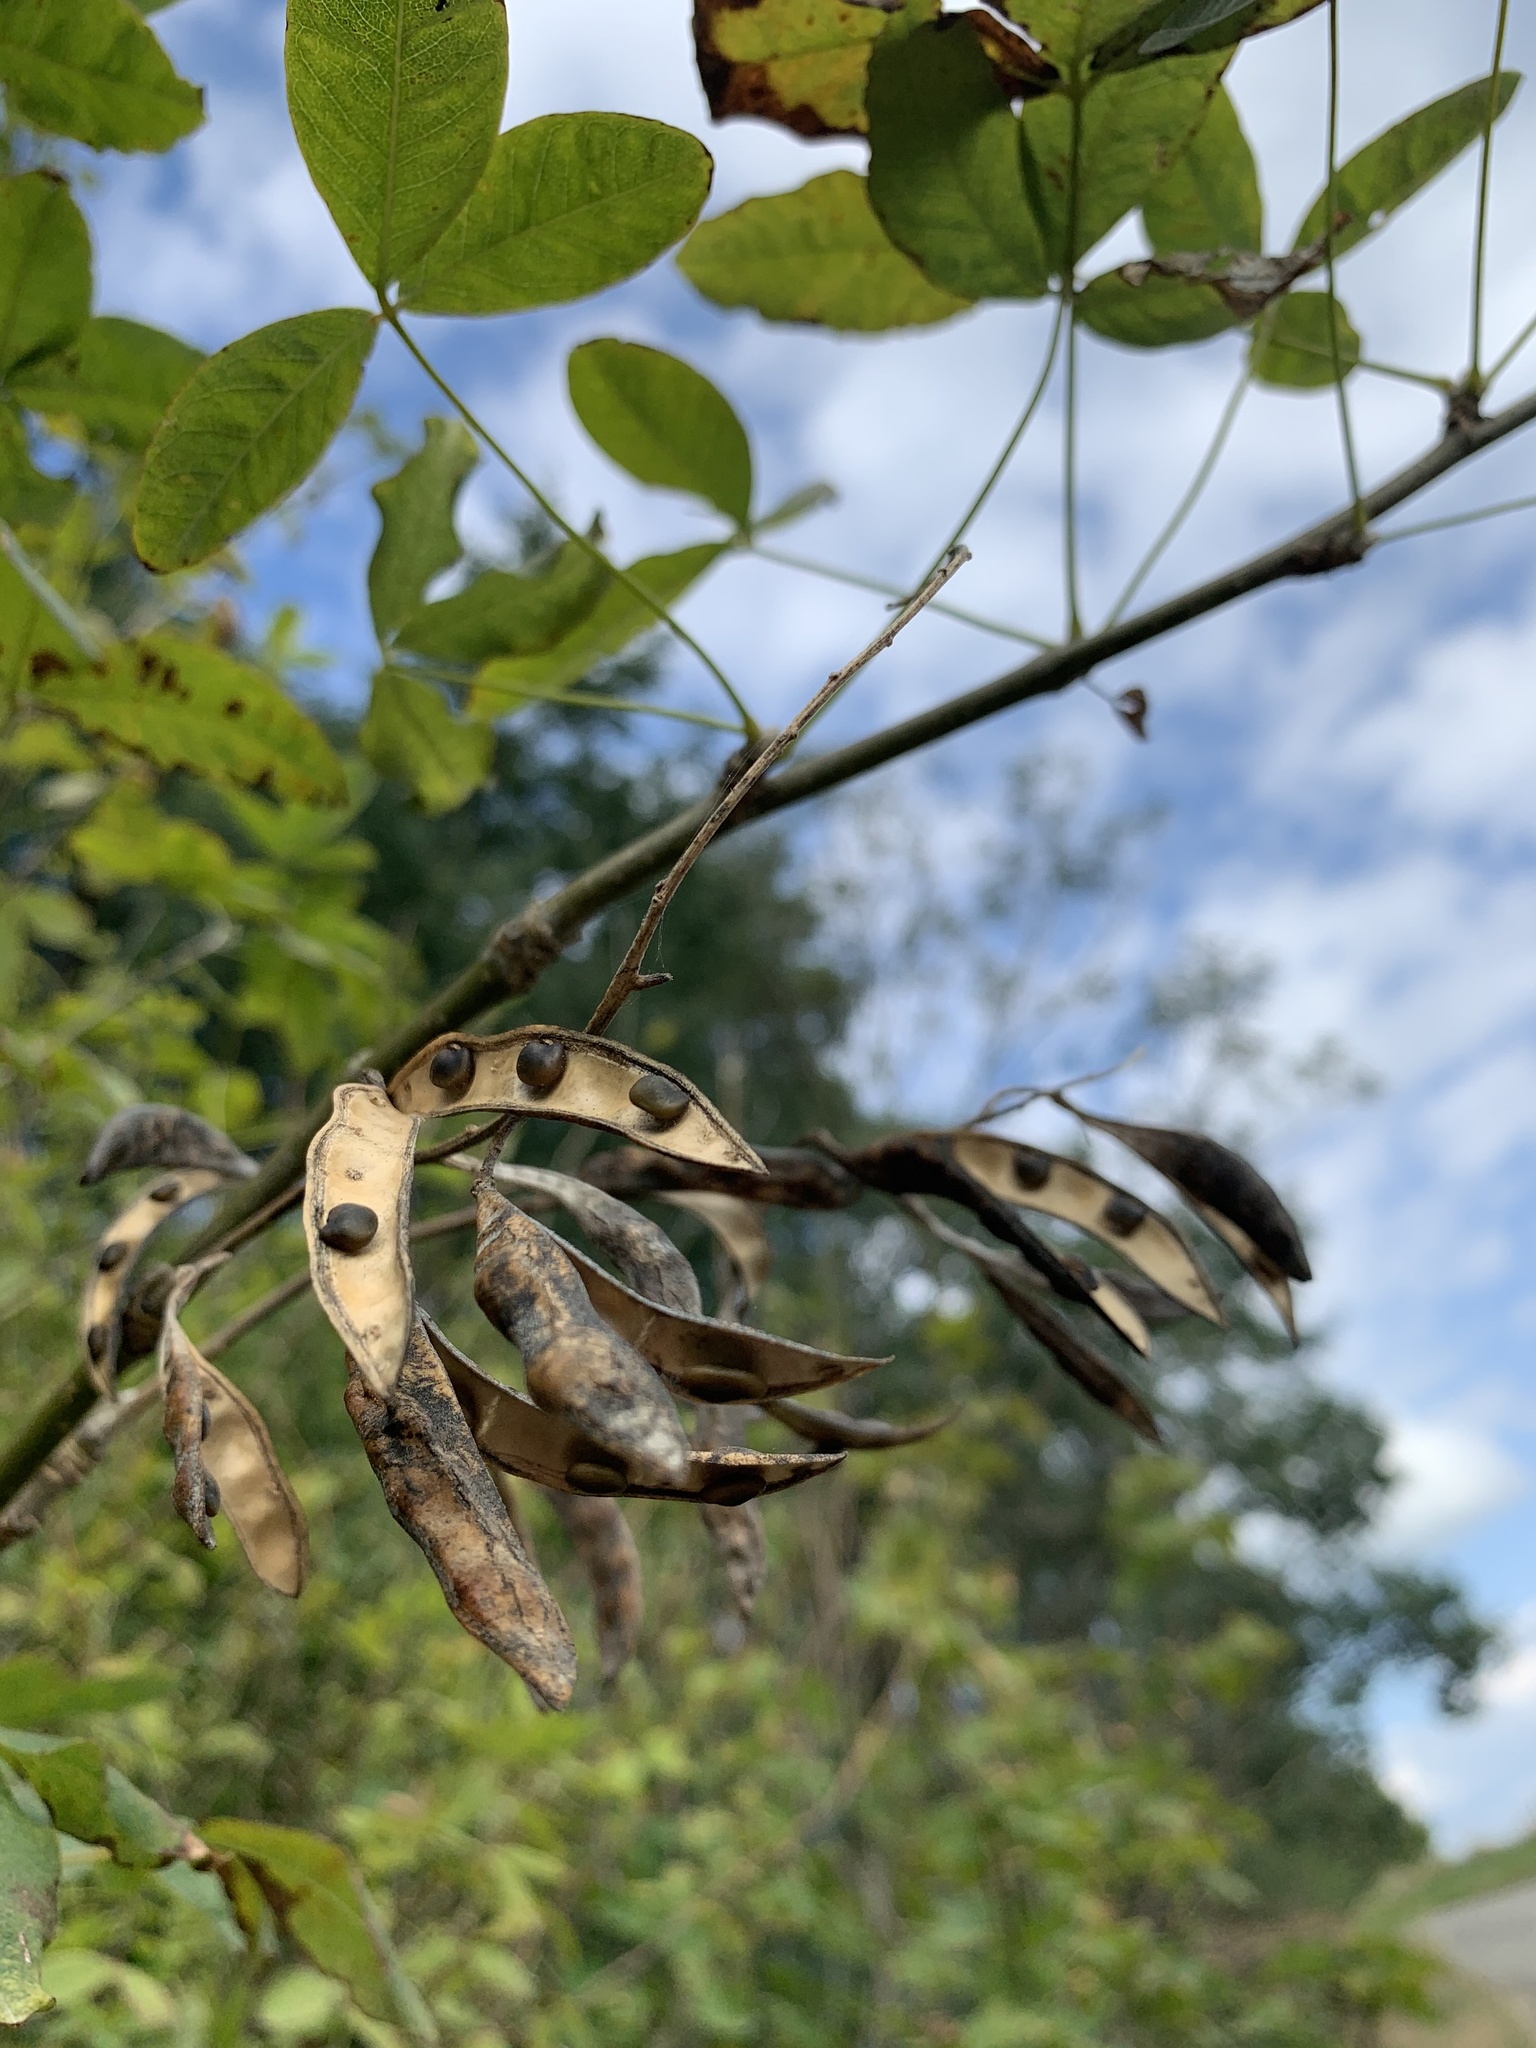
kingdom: Plantae
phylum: Tracheophyta
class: Magnoliopsida
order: Fabales
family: Fabaceae
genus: Laburnum
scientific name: Laburnum anagyroides
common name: Laburnum
